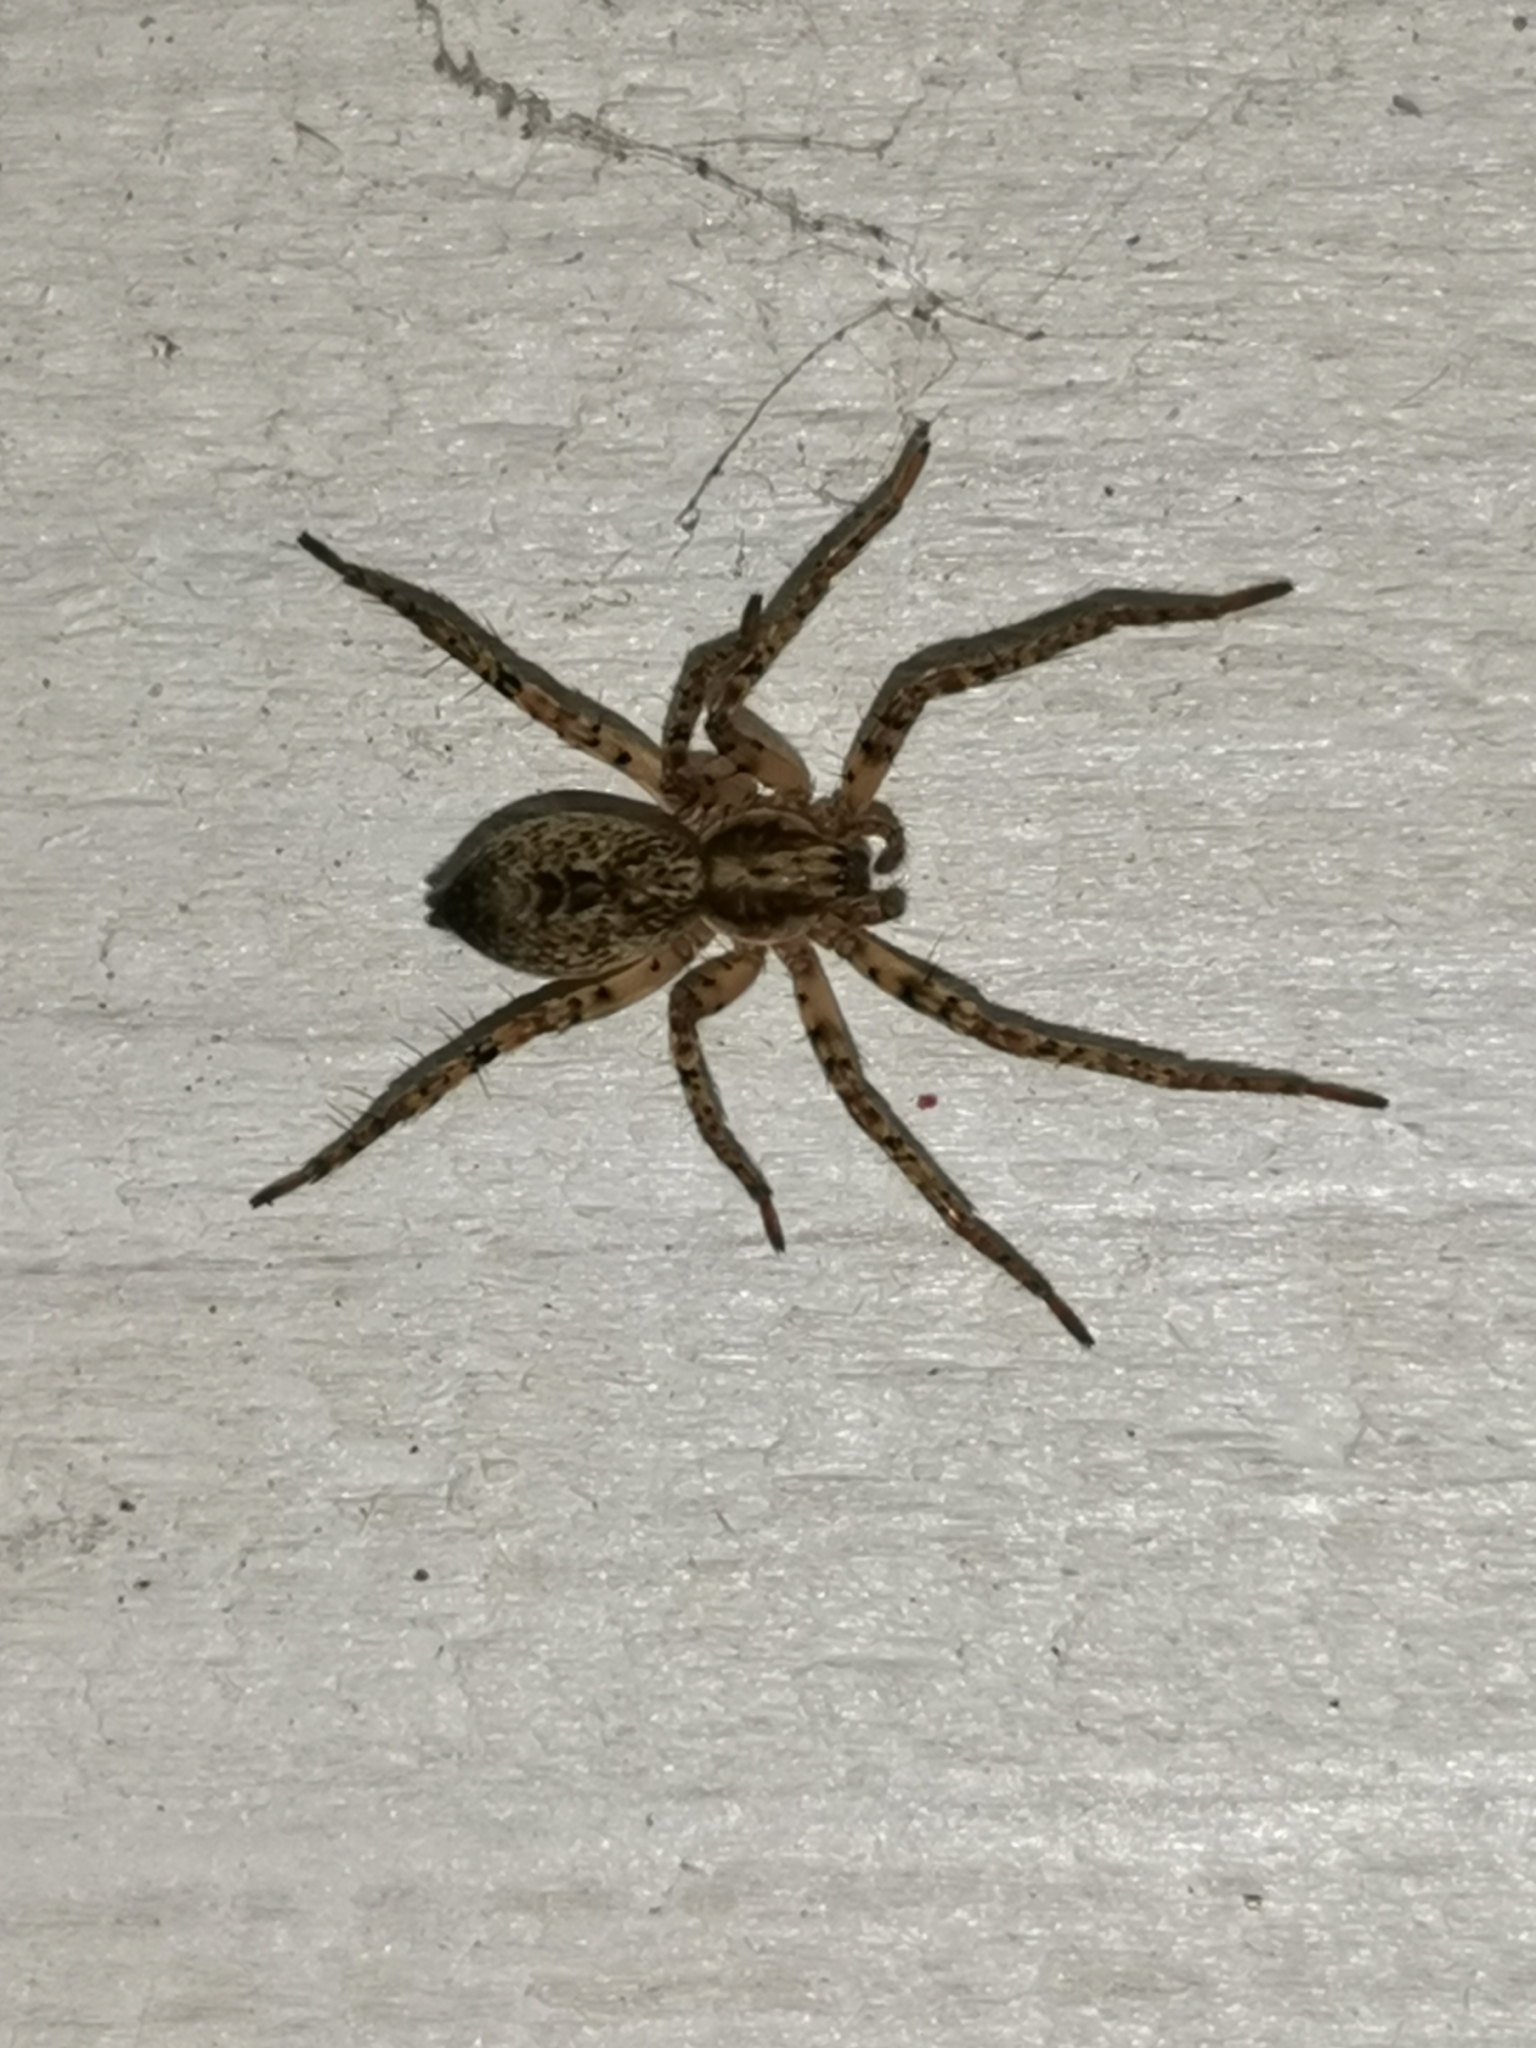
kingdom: Animalia
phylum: Arthropoda
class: Arachnida
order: Araneae
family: Anyphaenidae
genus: Anyphaena
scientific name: Anyphaena accentuata
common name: Buzzing spider
